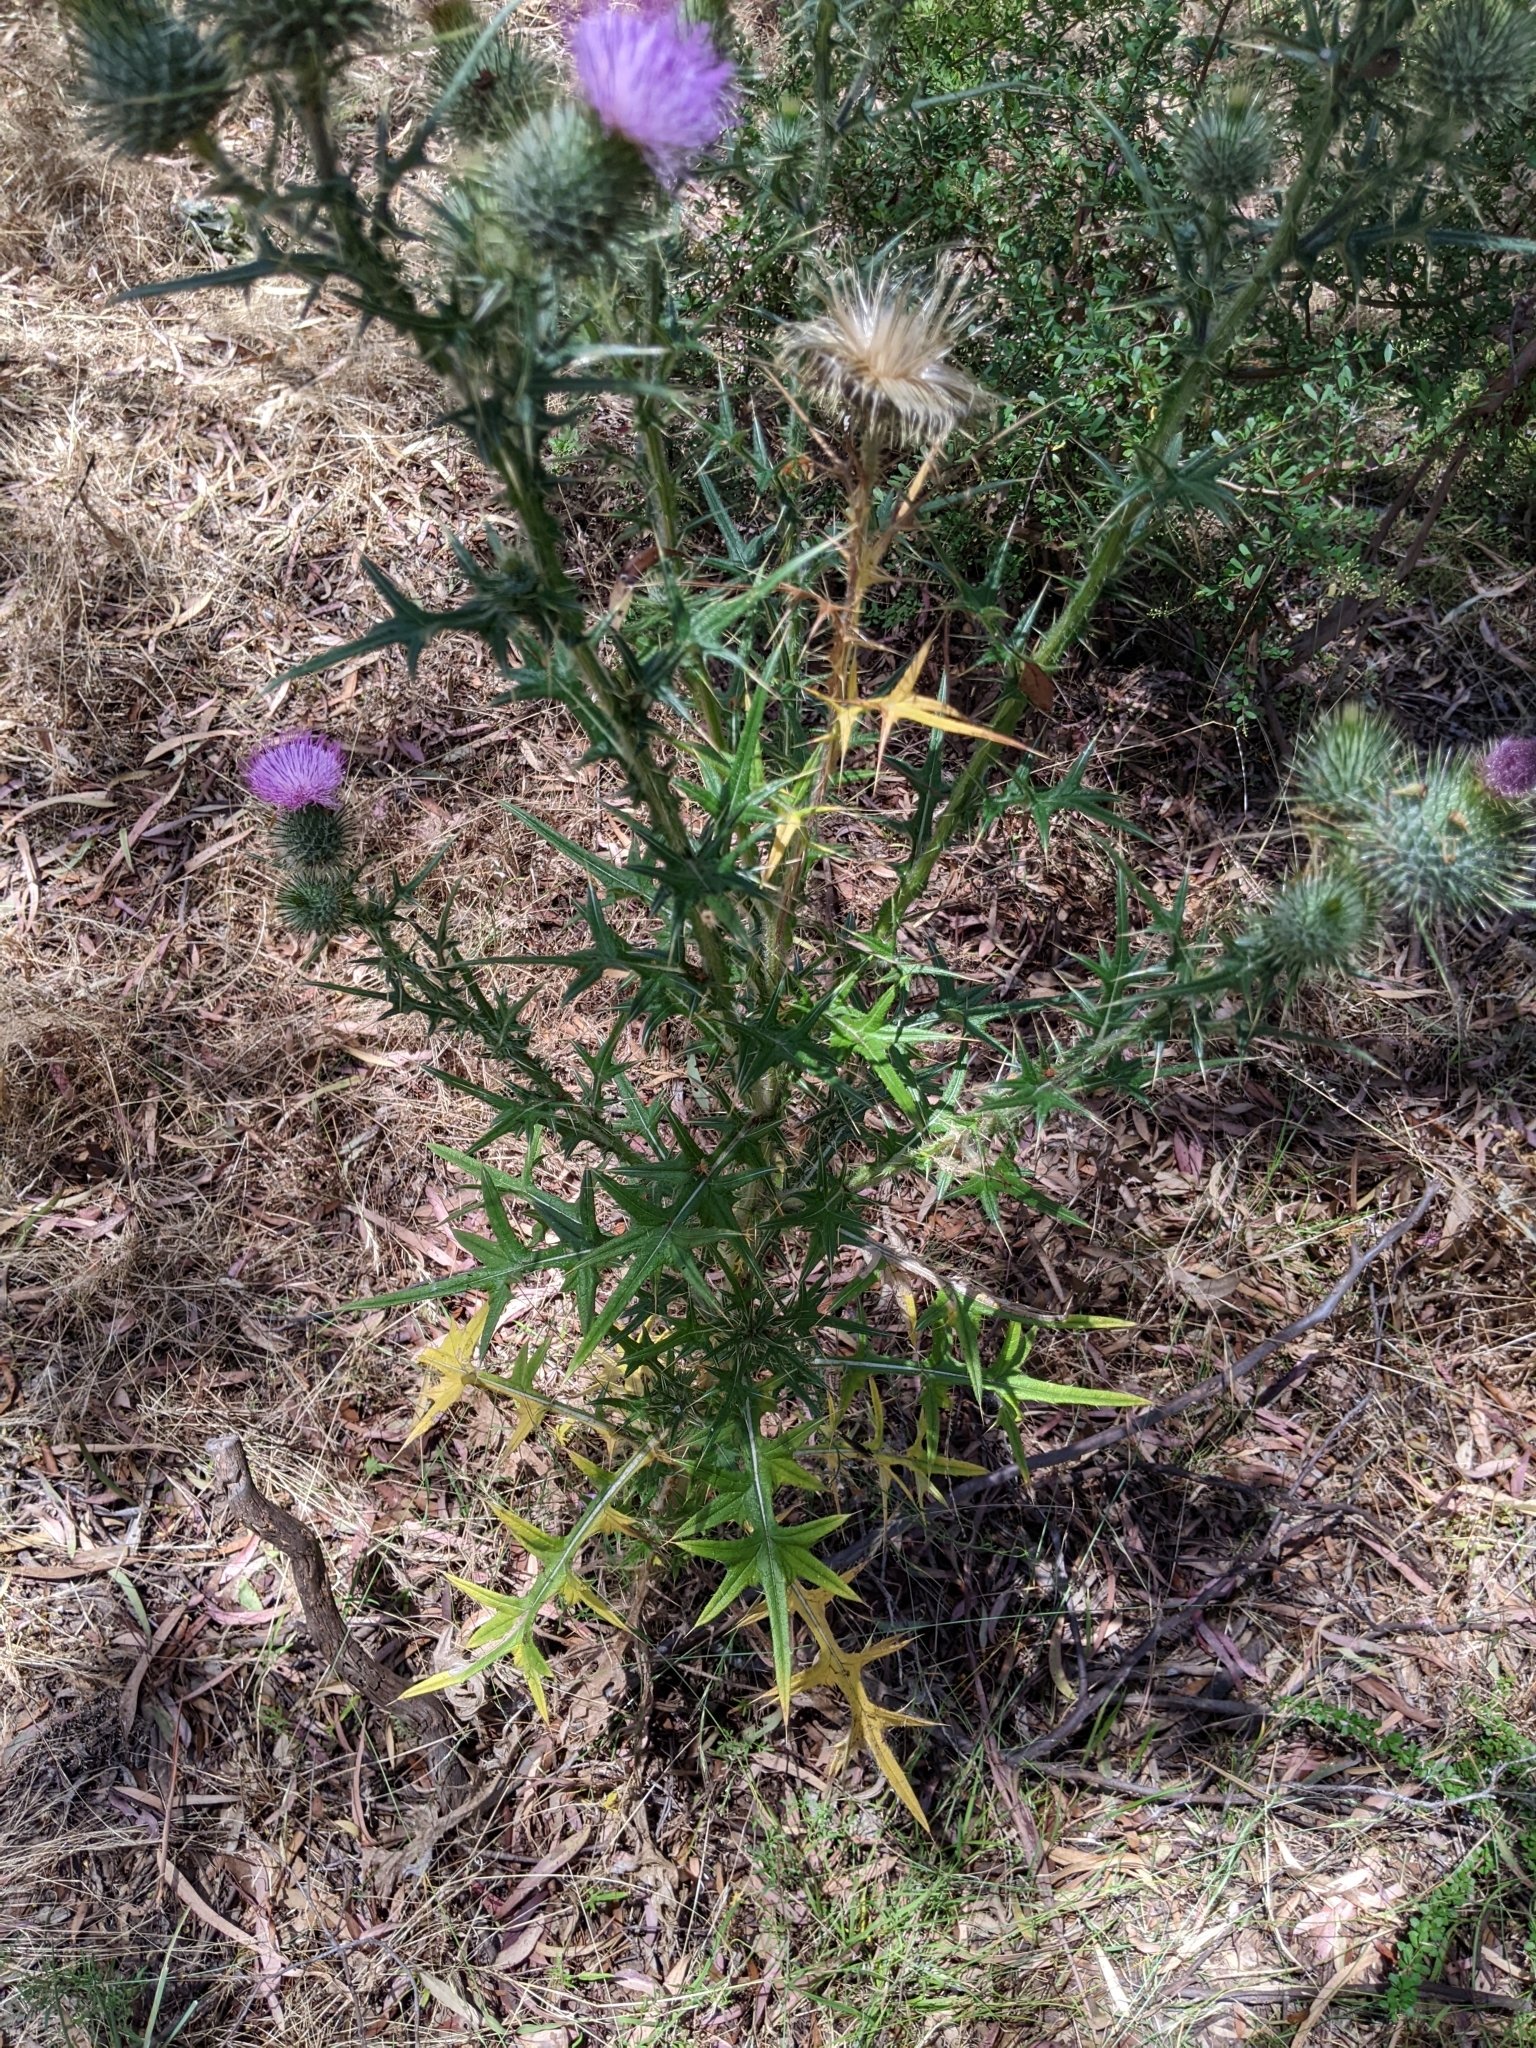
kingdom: Plantae
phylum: Tracheophyta
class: Magnoliopsida
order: Asterales
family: Asteraceae
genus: Cirsium
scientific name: Cirsium vulgare
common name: Bull thistle
